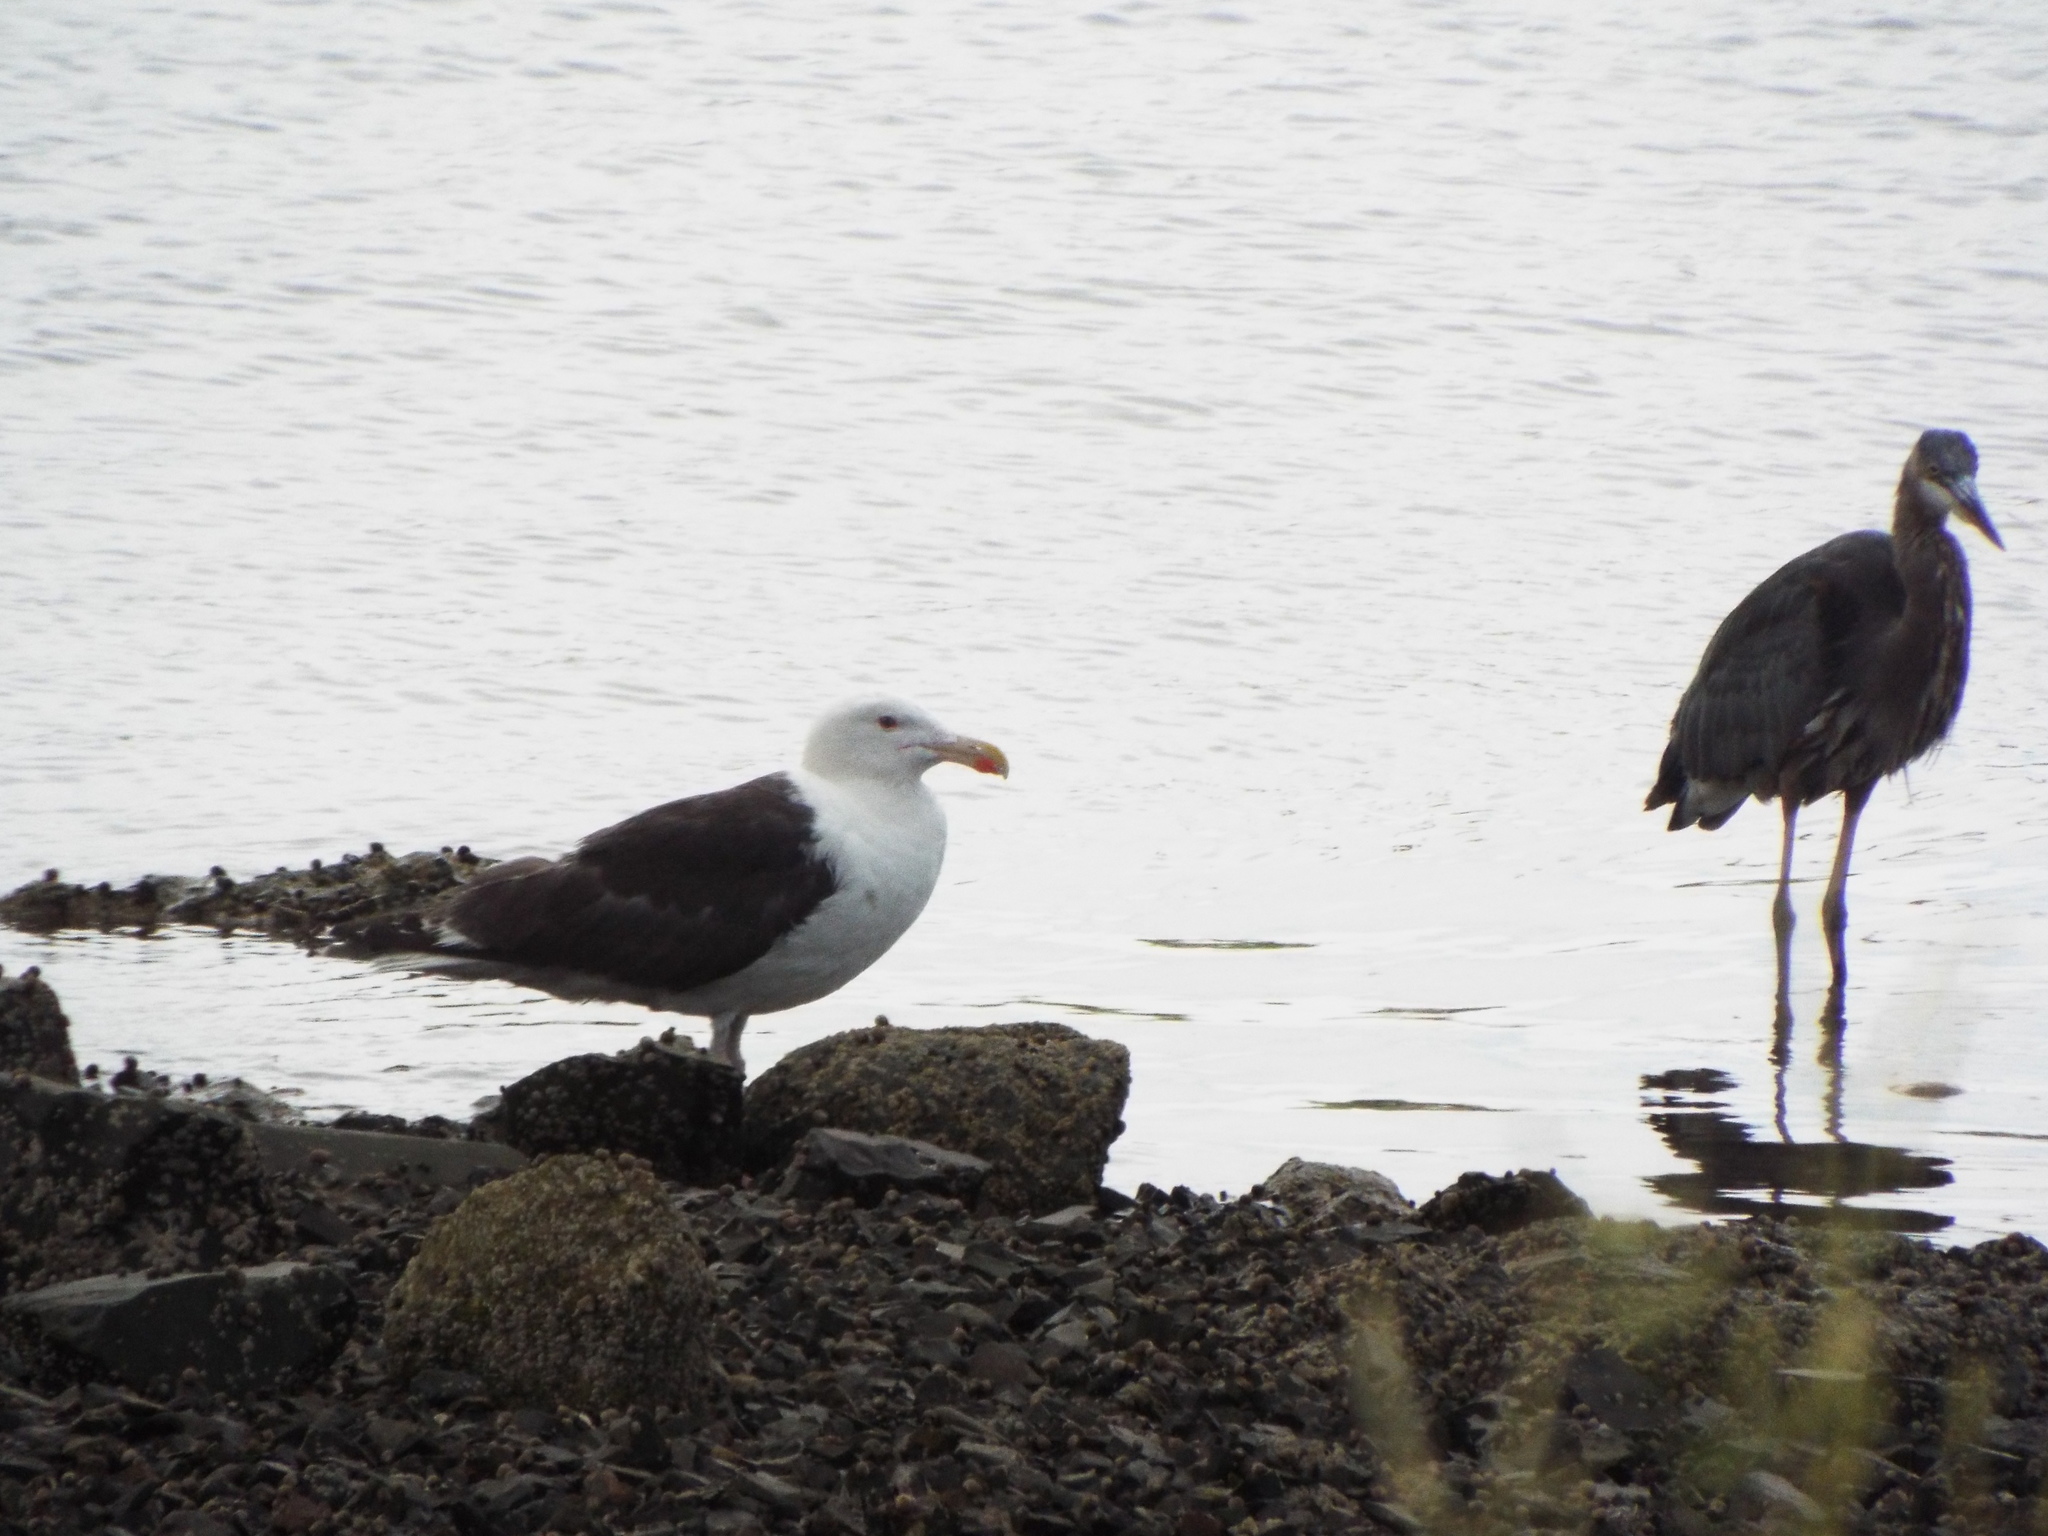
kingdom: Animalia
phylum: Chordata
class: Aves
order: Charadriiformes
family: Laridae
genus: Larus
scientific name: Larus marinus
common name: Great black-backed gull
